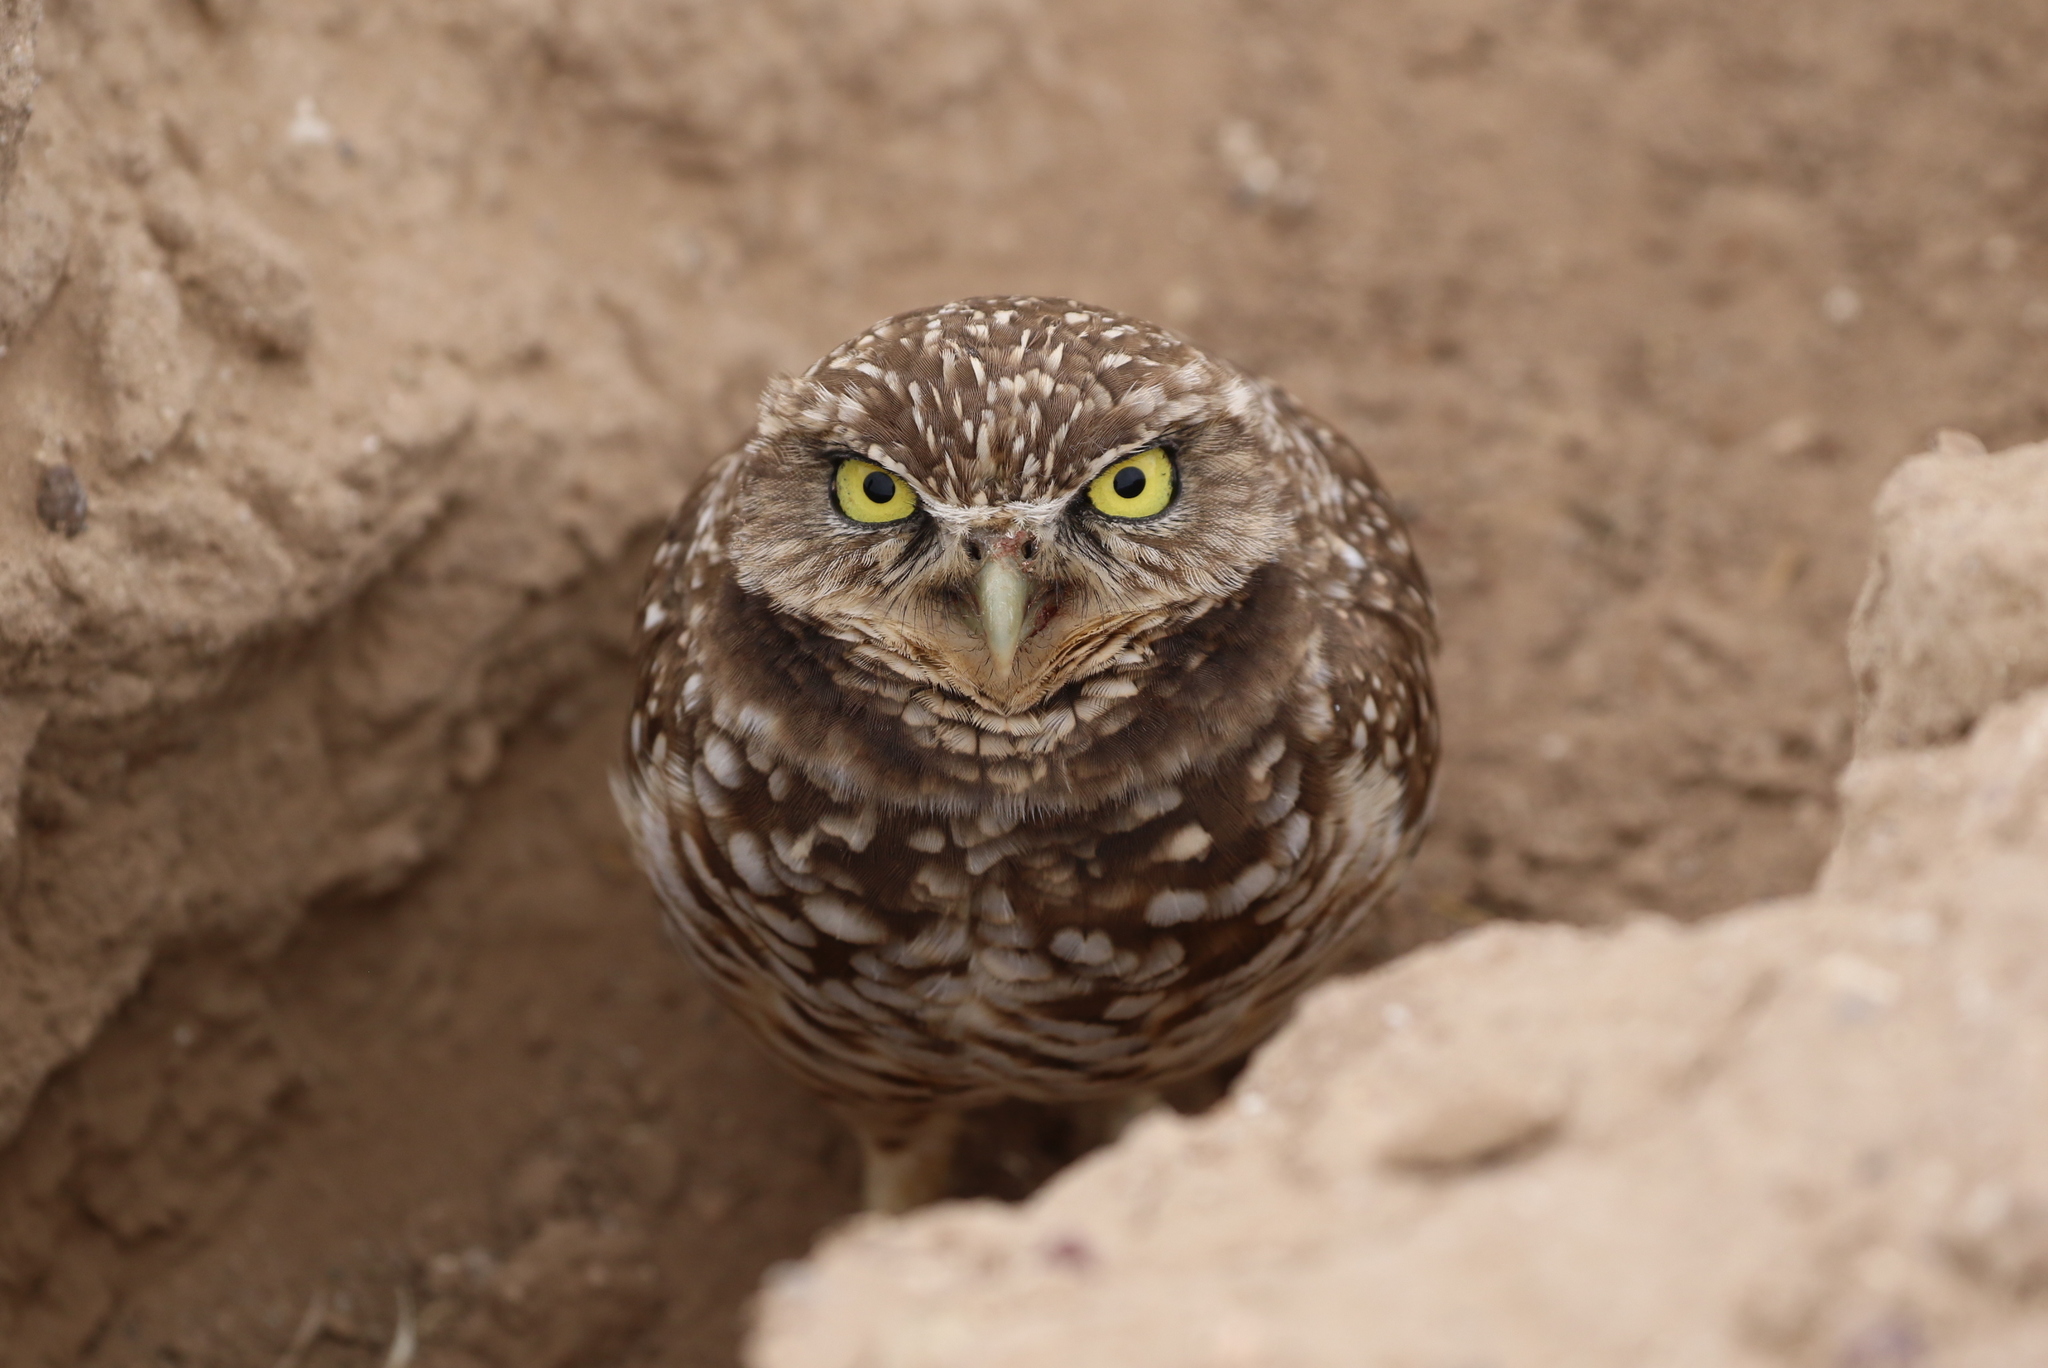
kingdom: Animalia
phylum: Chordata
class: Aves
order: Strigiformes
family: Strigidae
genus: Athene
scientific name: Athene cunicularia
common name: Burrowing owl
